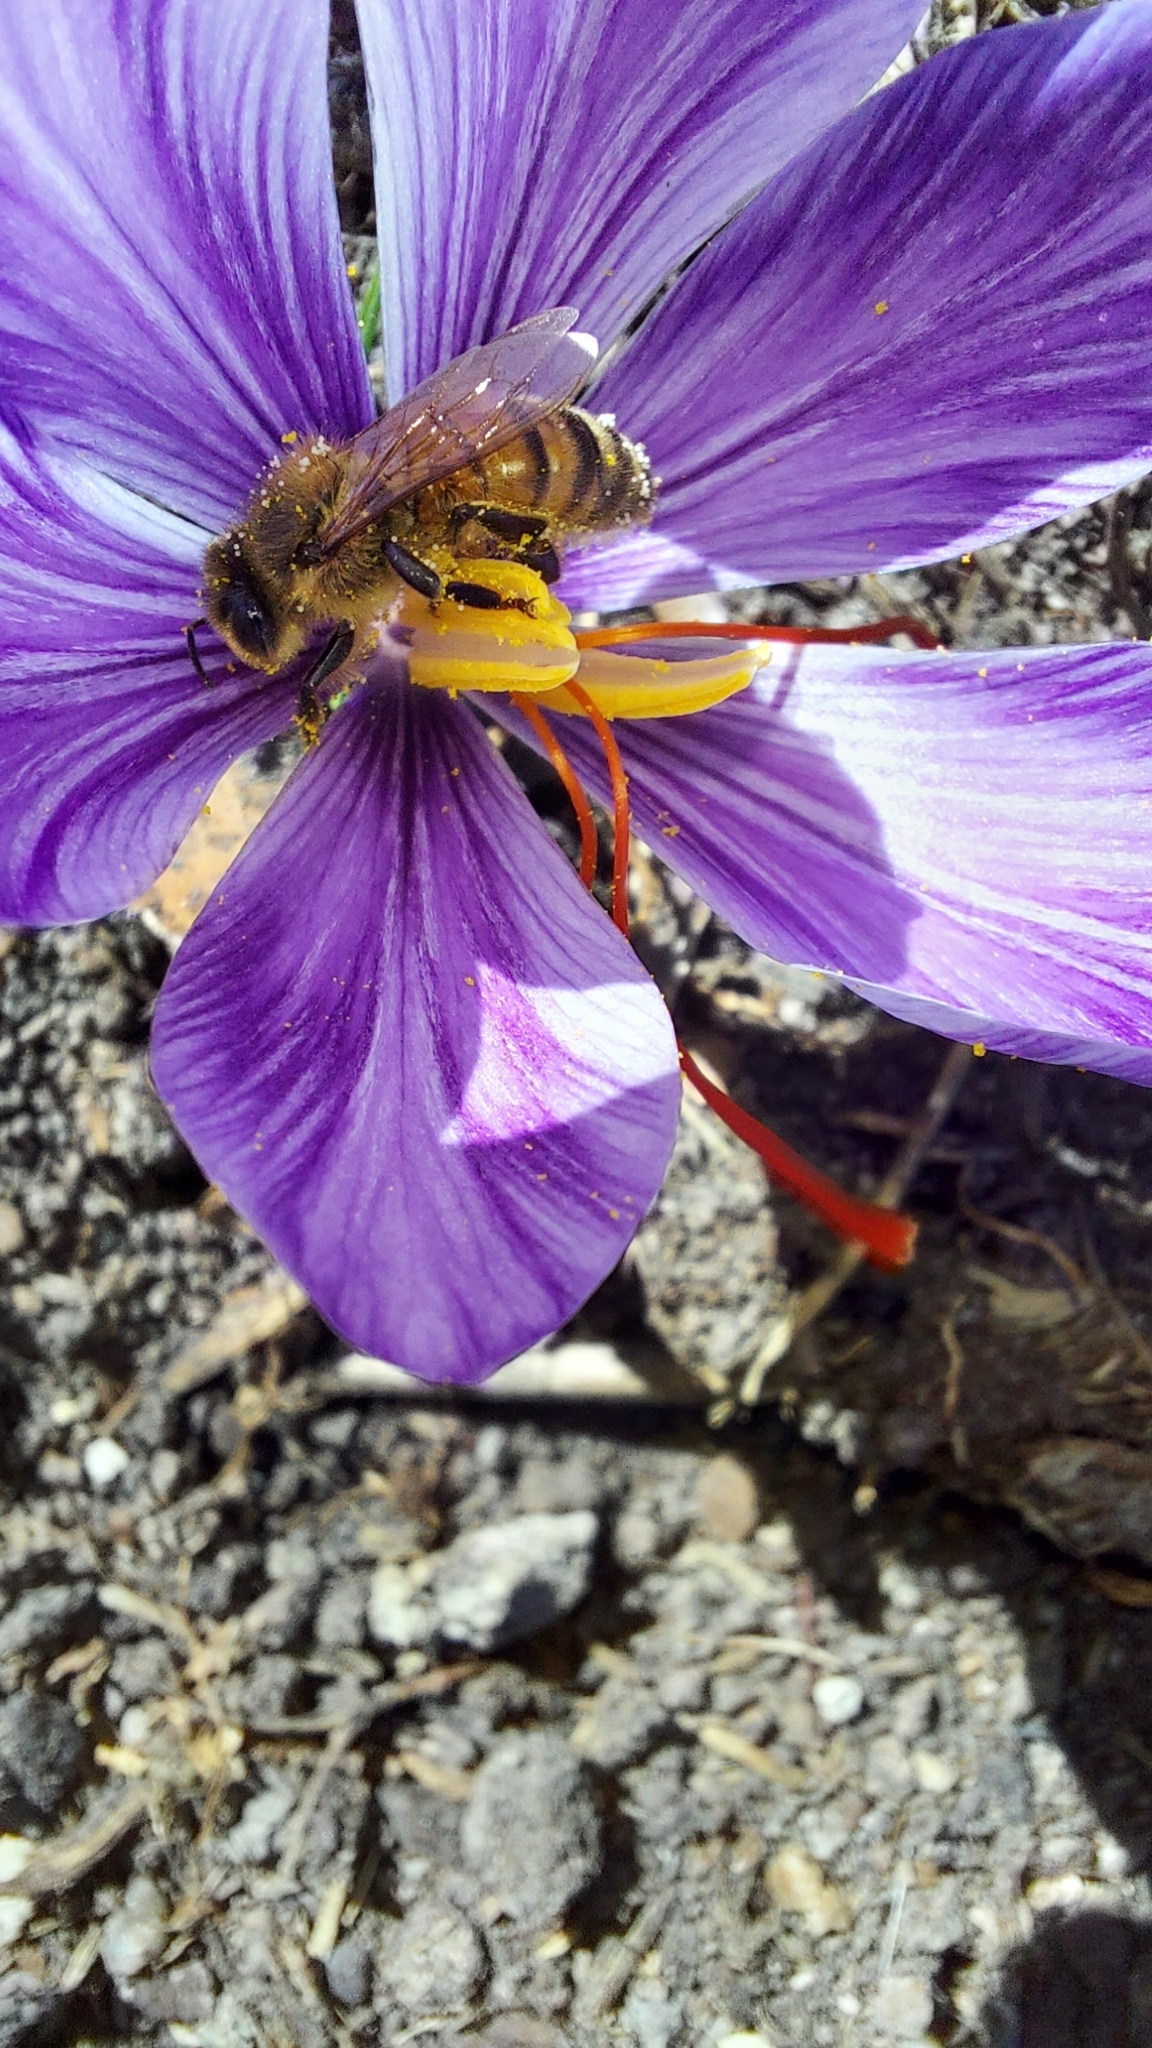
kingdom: Animalia
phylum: Arthropoda
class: Insecta
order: Hymenoptera
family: Apidae
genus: Apis
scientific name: Apis mellifera
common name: Honey bee
